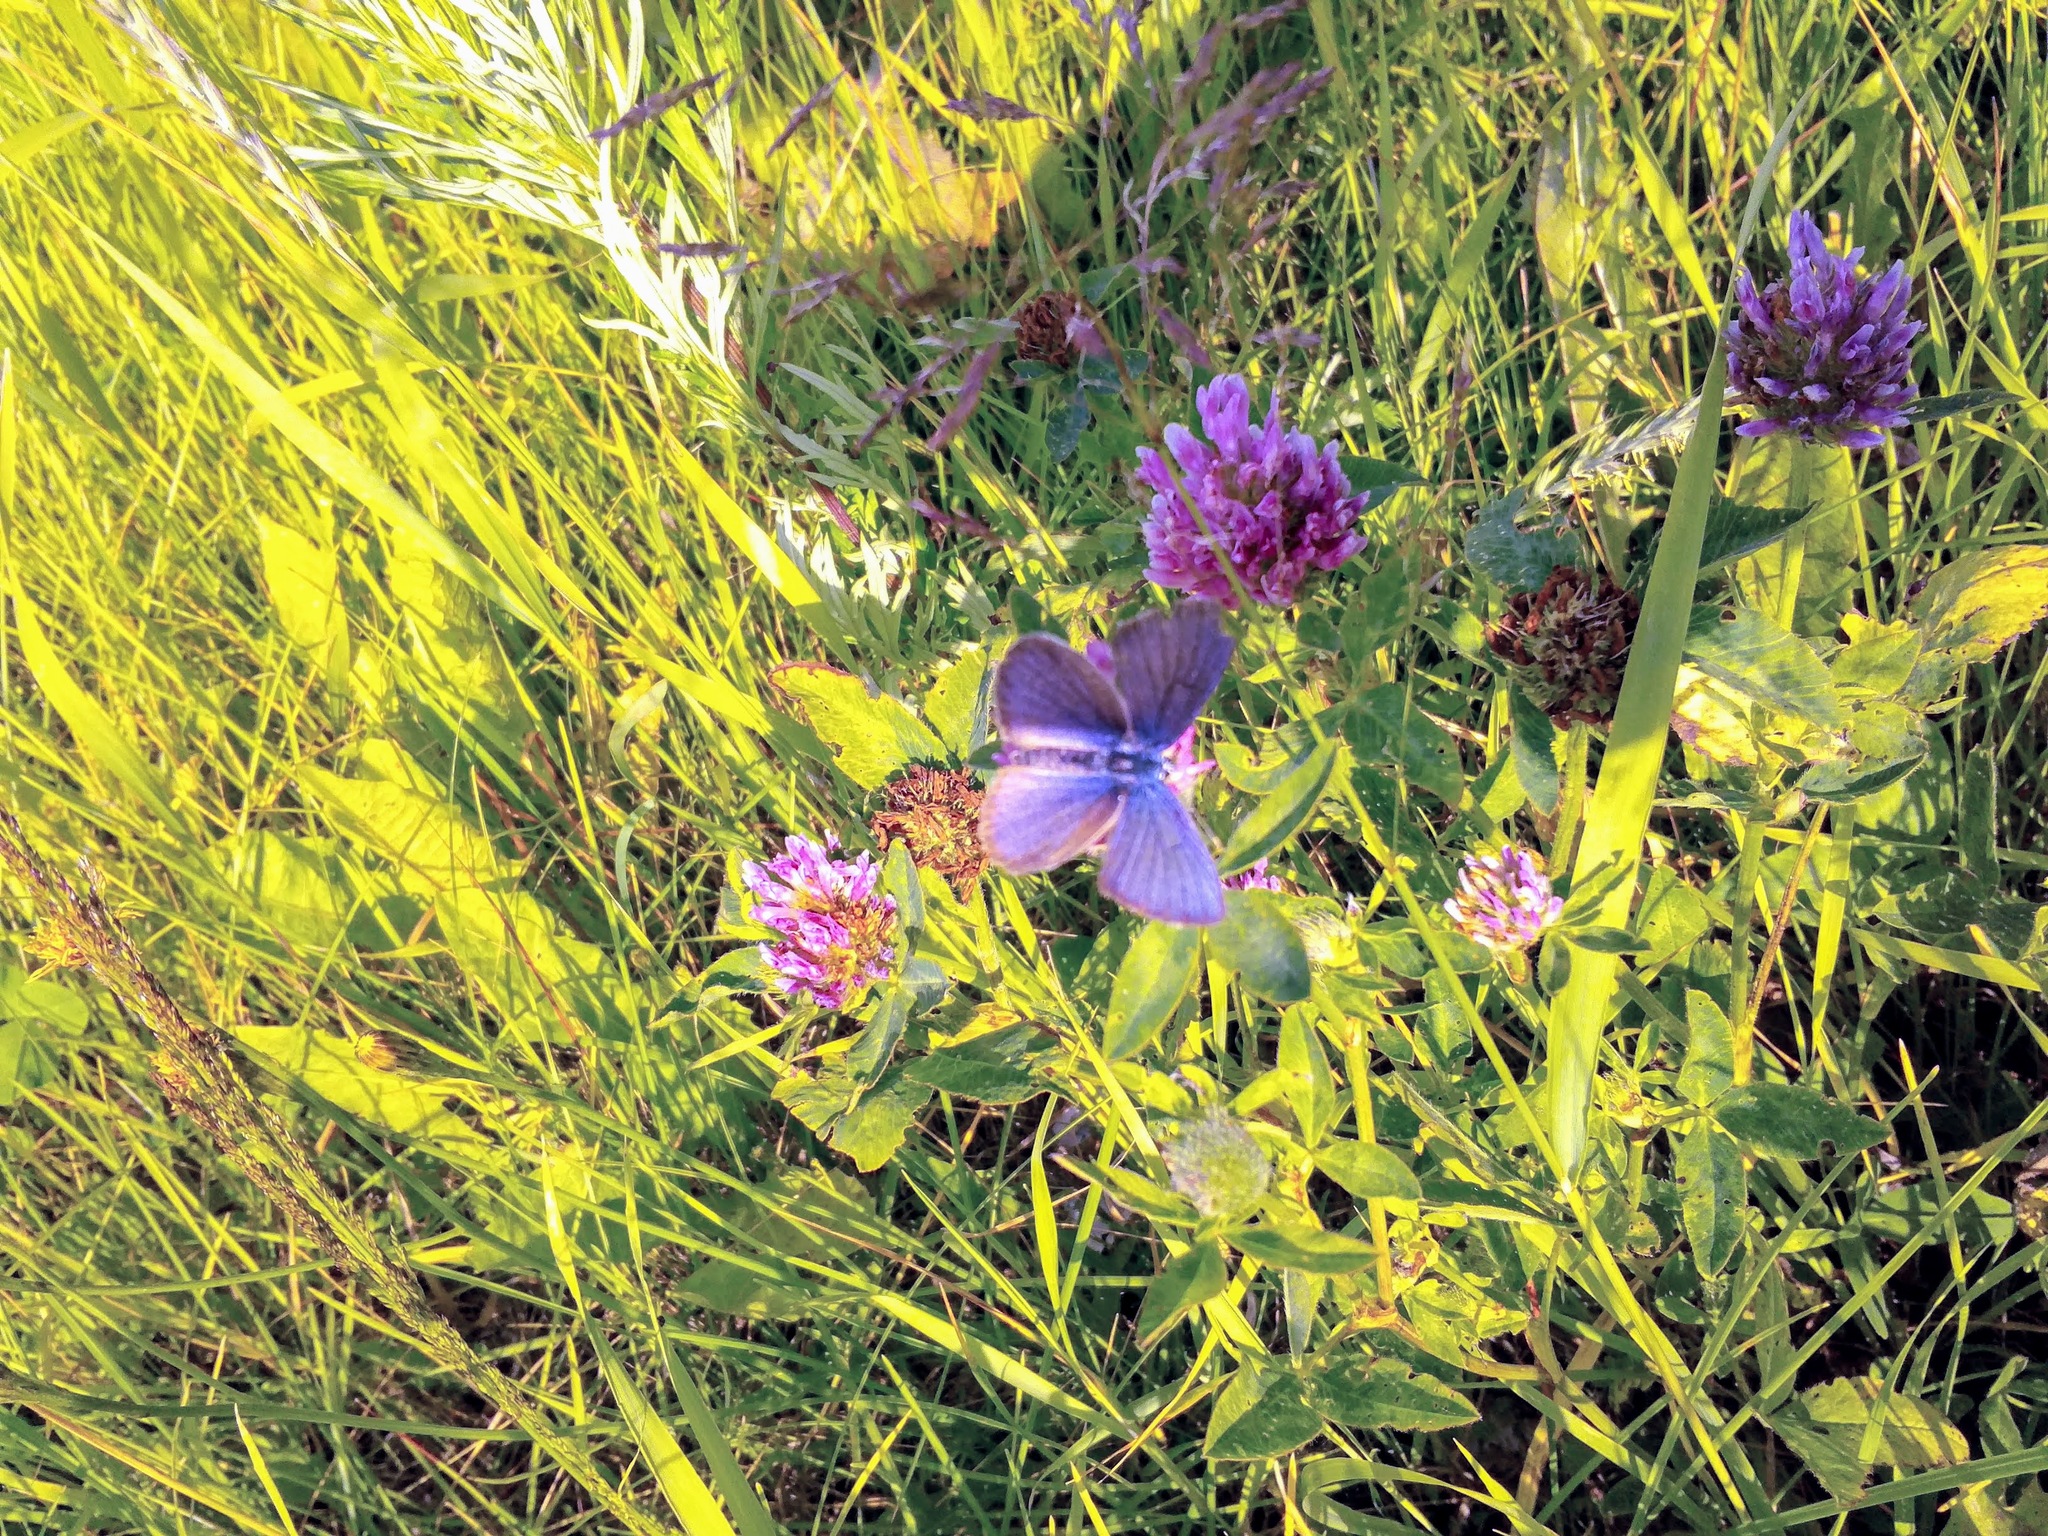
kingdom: Animalia
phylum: Arthropoda
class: Insecta
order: Lepidoptera
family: Lycaenidae
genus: Cyaniris
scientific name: Cyaniris semiargus
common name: Mazarine blue
